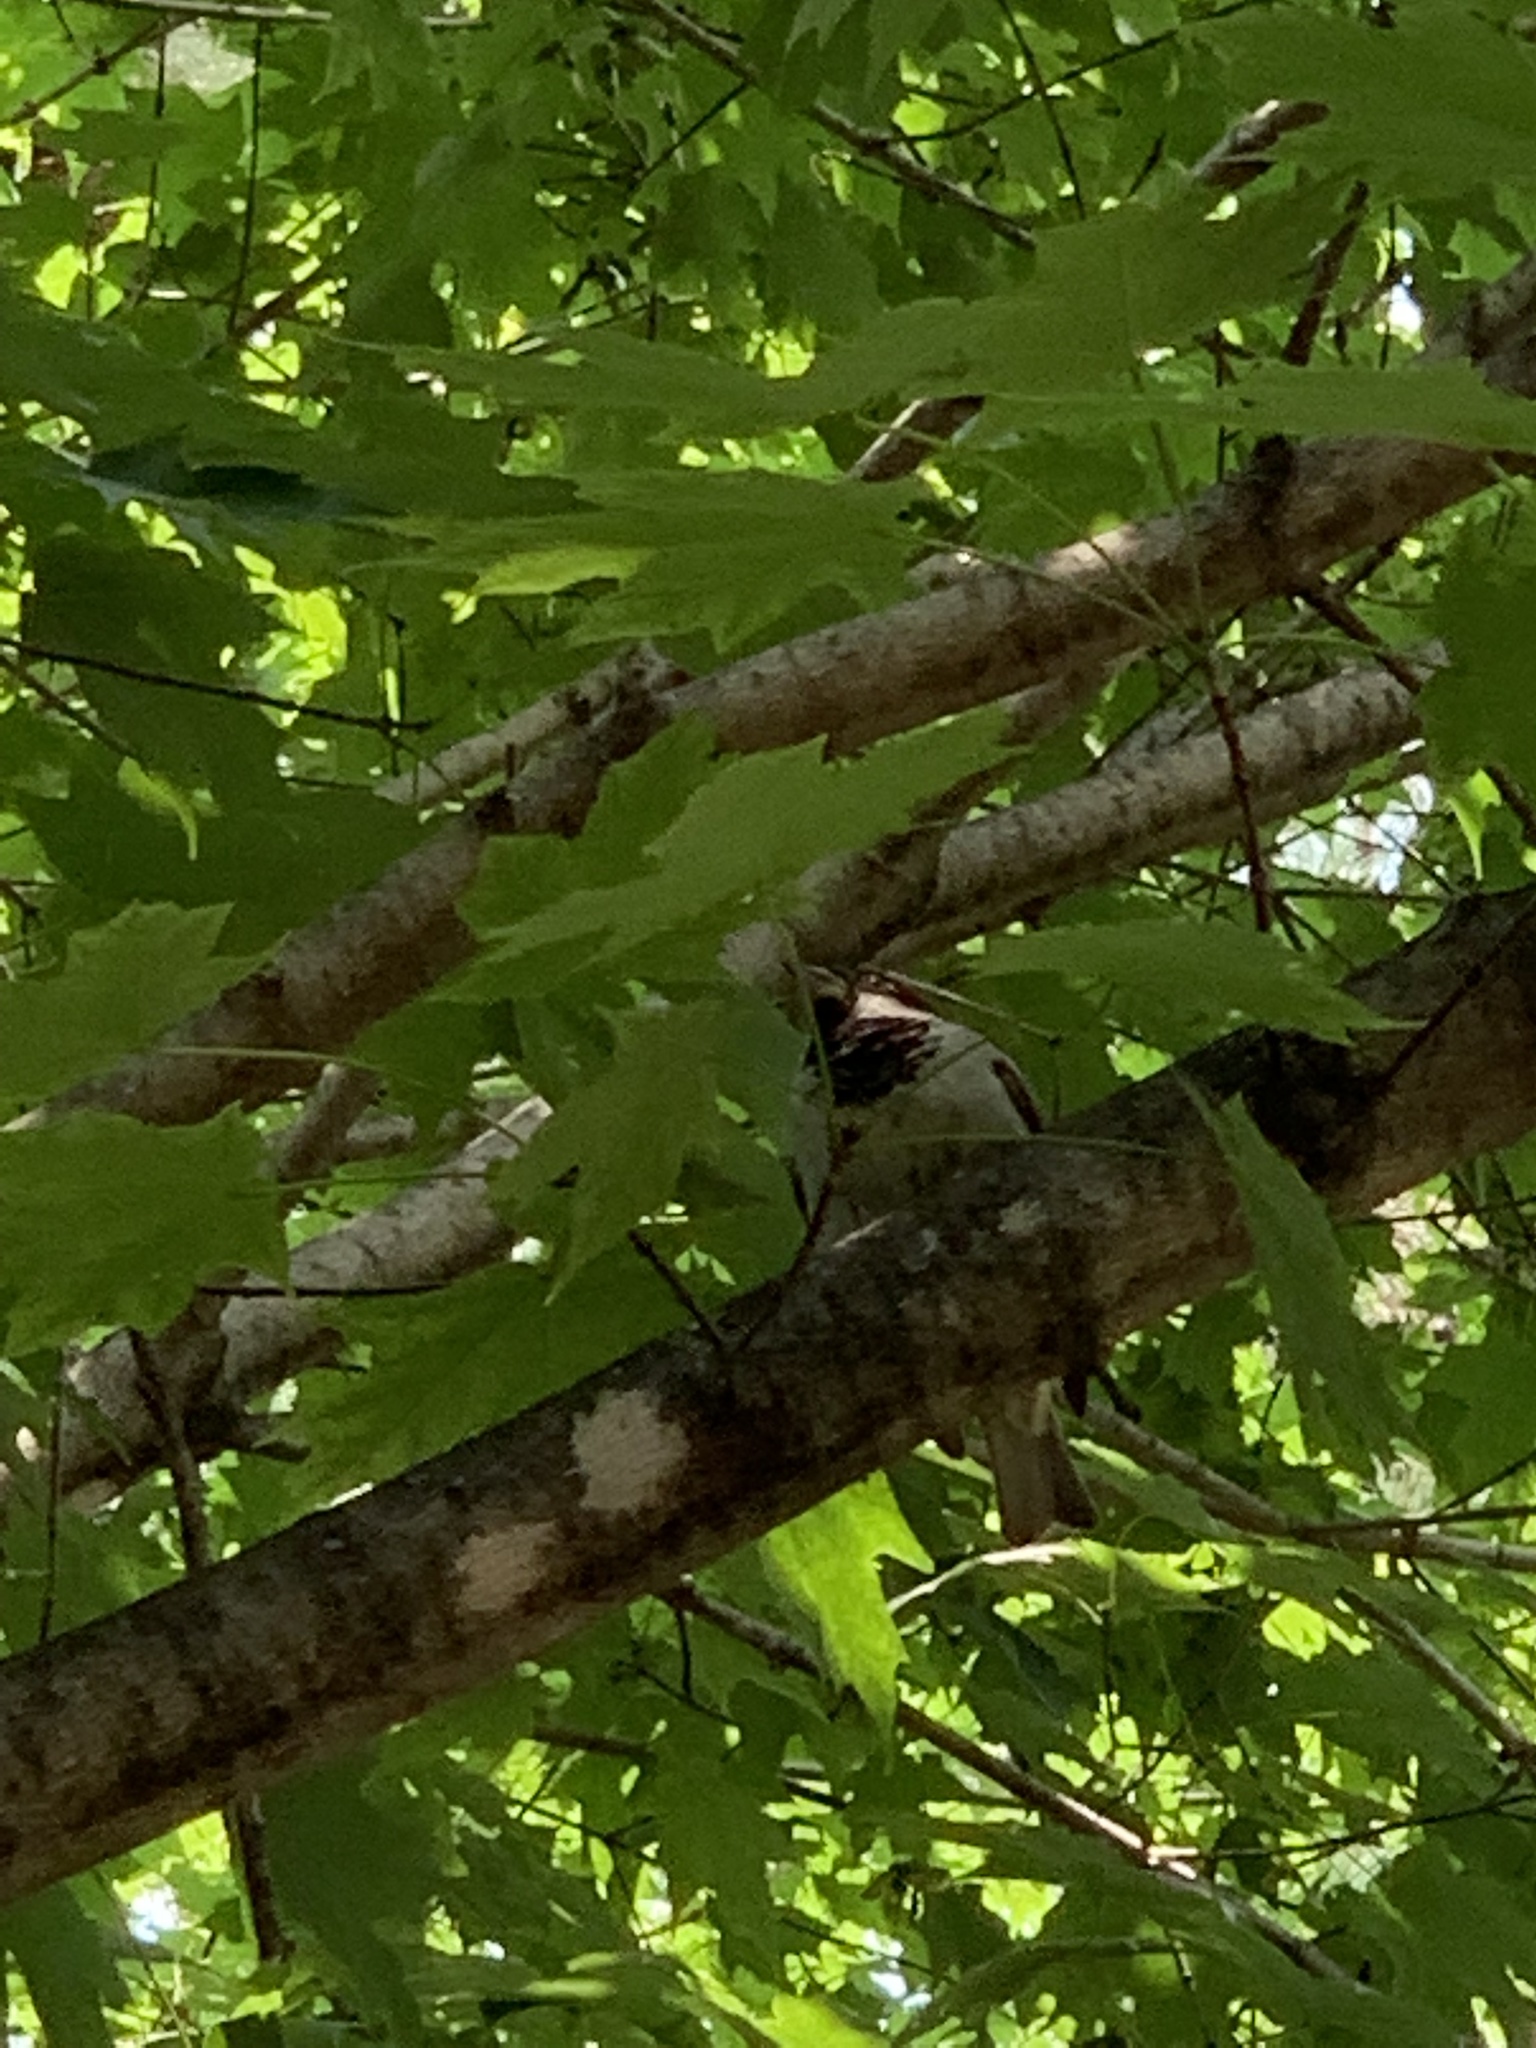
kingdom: Animalia
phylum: Chordata
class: Aves
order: Passeriformes
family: Passeridae
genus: Passer
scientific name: Passer domesticus
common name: House sparrow
